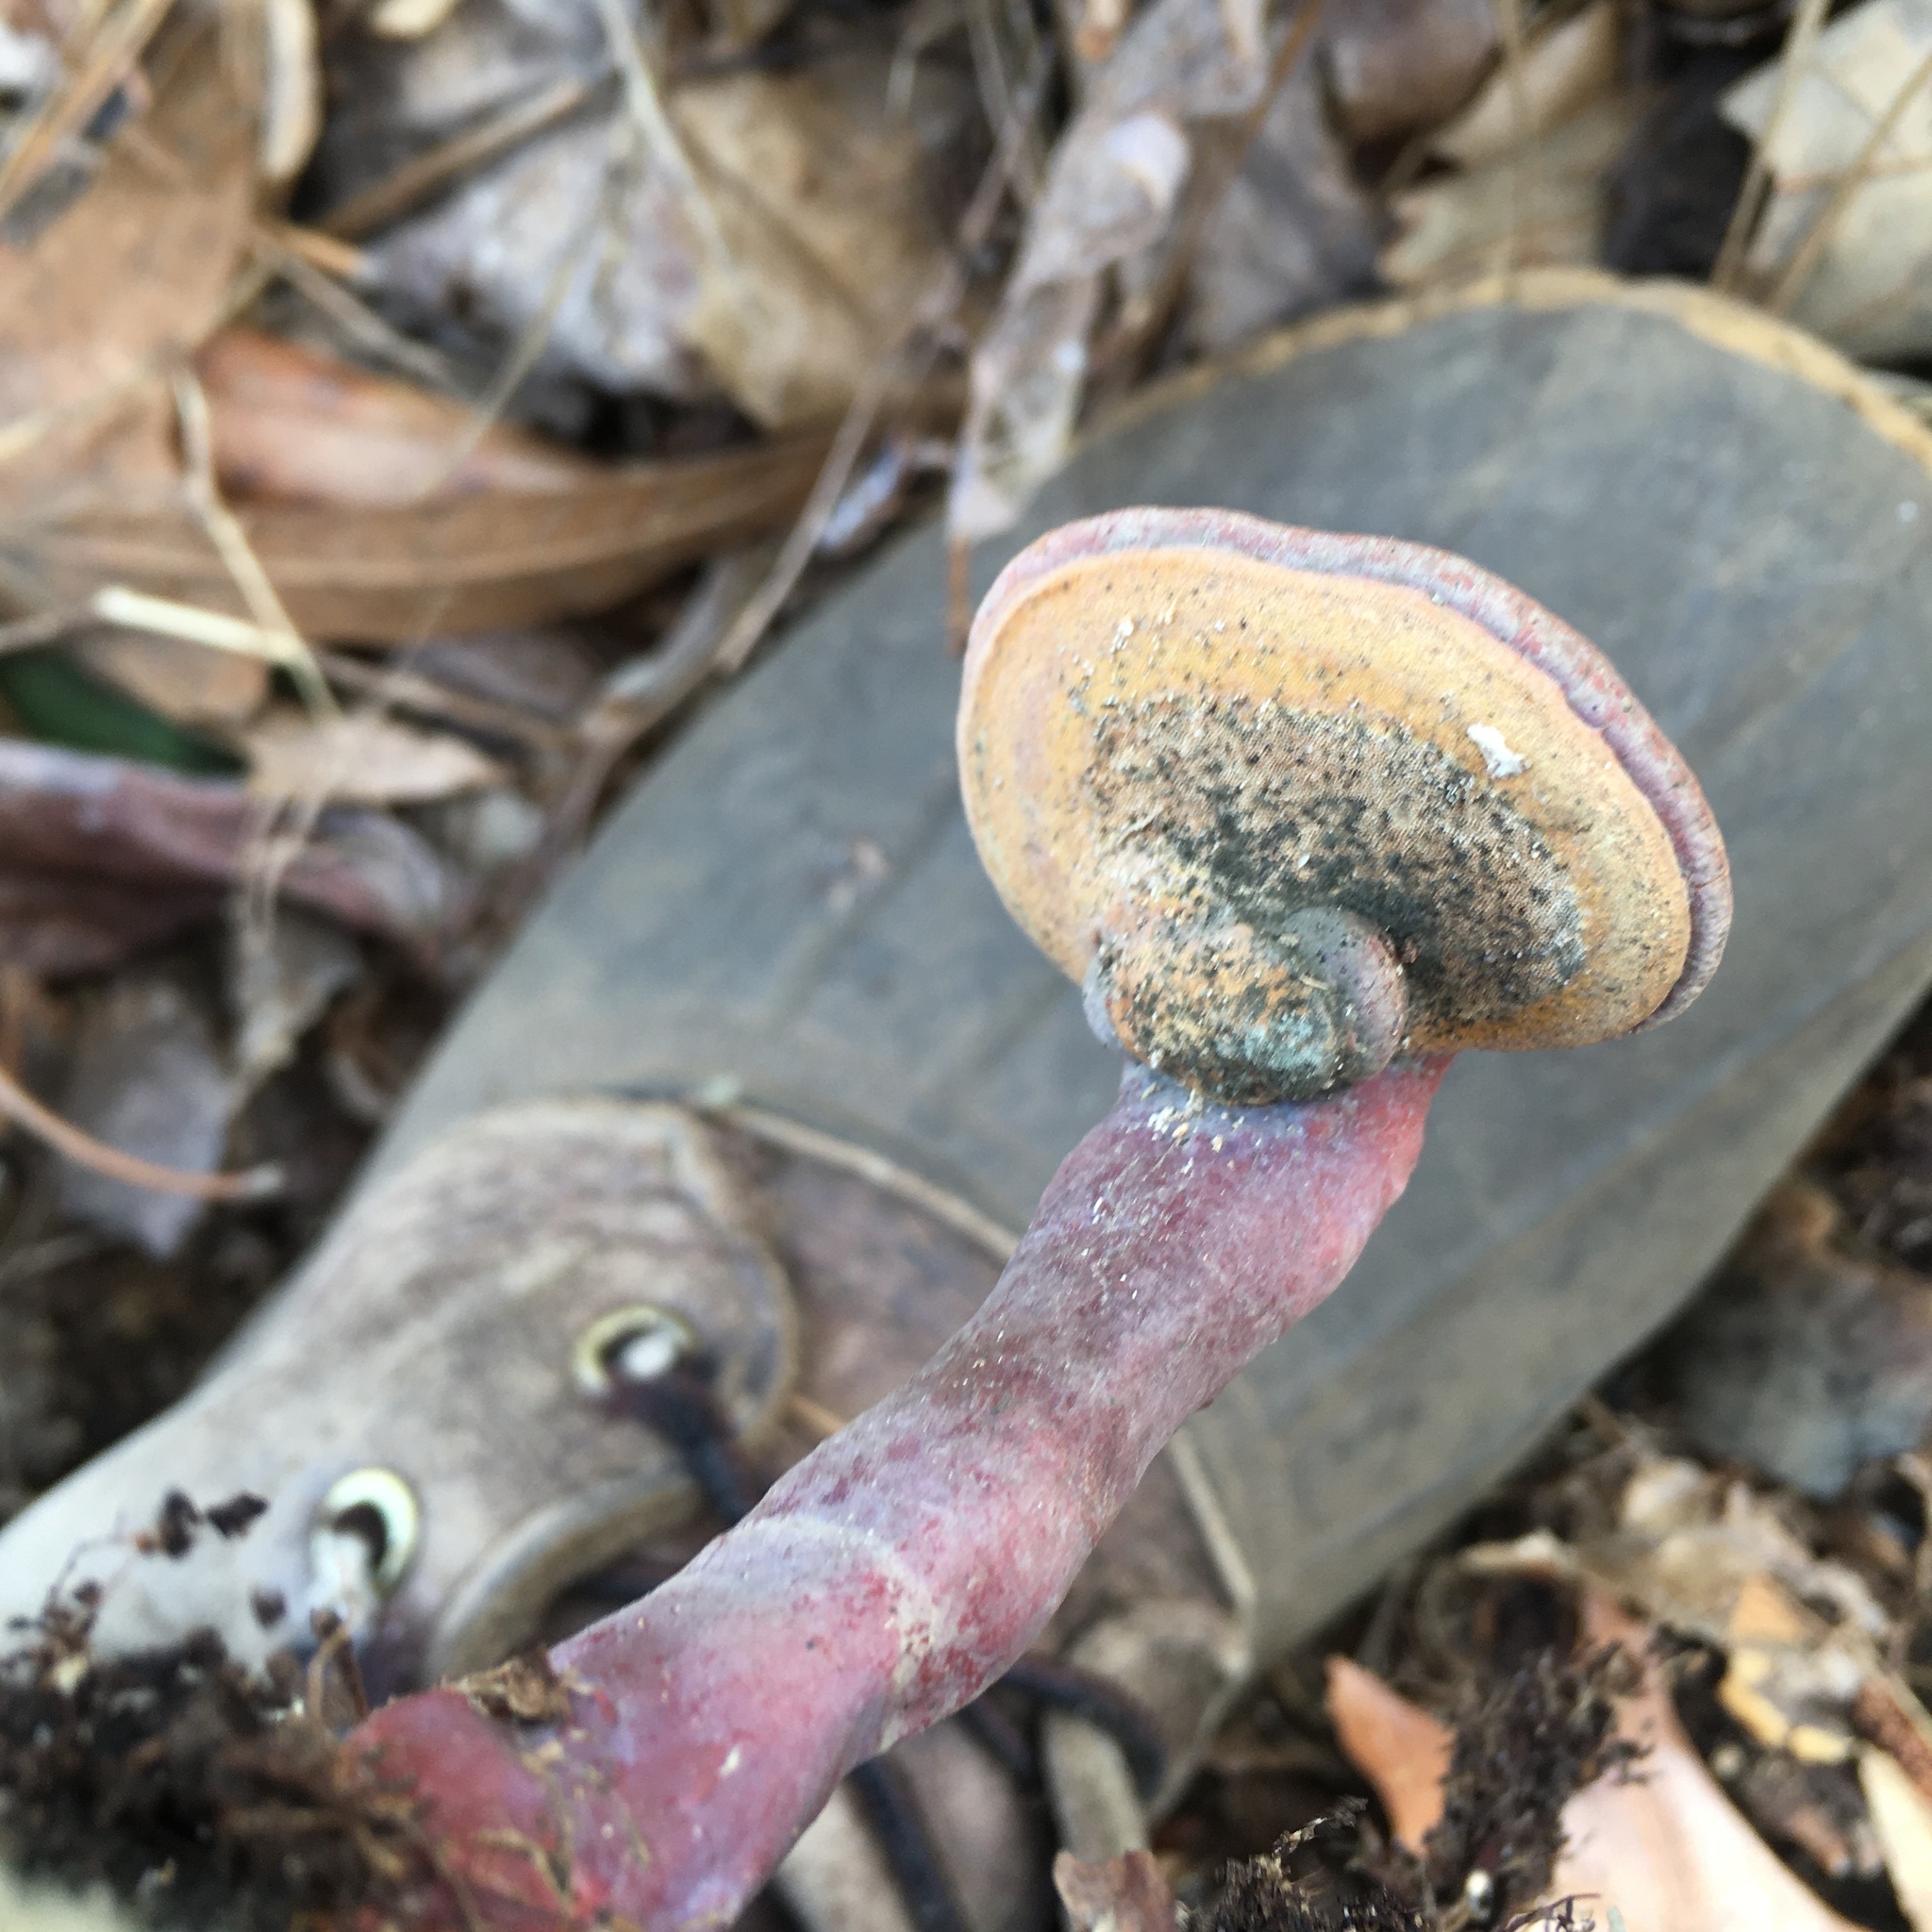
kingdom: Fungi
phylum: Basidiomycota
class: Agaricomycetes
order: Polyporales
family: Polyporaceae
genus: Ganoderma
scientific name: Ganoderma curtisii
